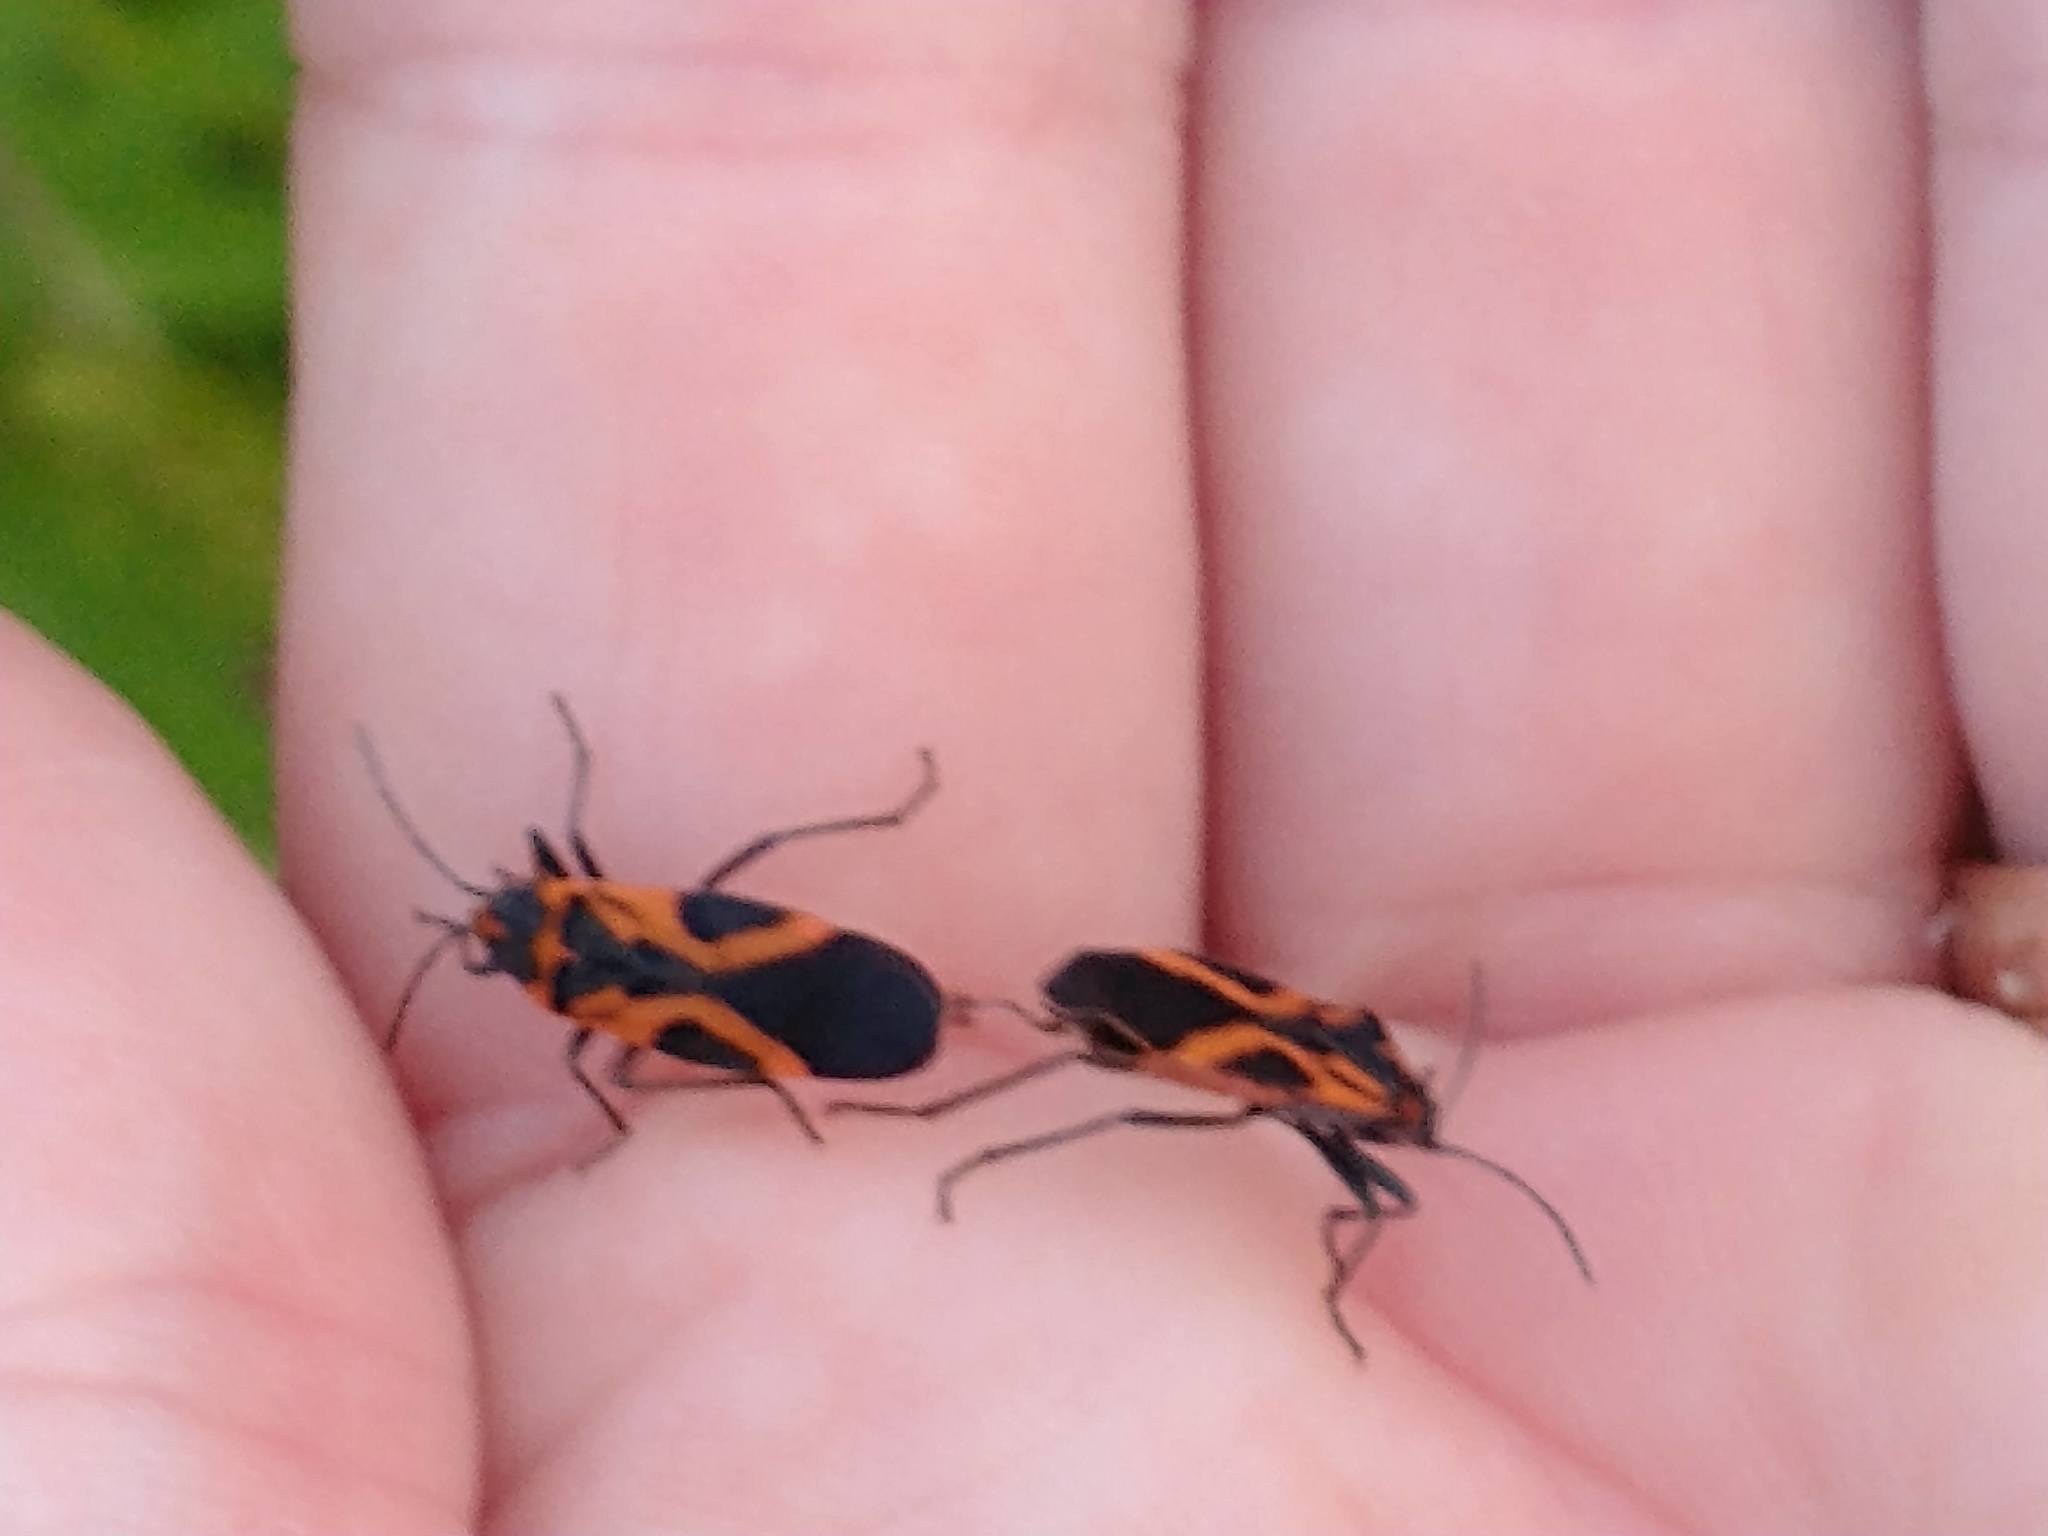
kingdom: Animalia
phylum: Arthropoda
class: Insecta
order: Hemiptera
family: Lygaeidae
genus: Lygaeus
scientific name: Lygaeus turcicus
